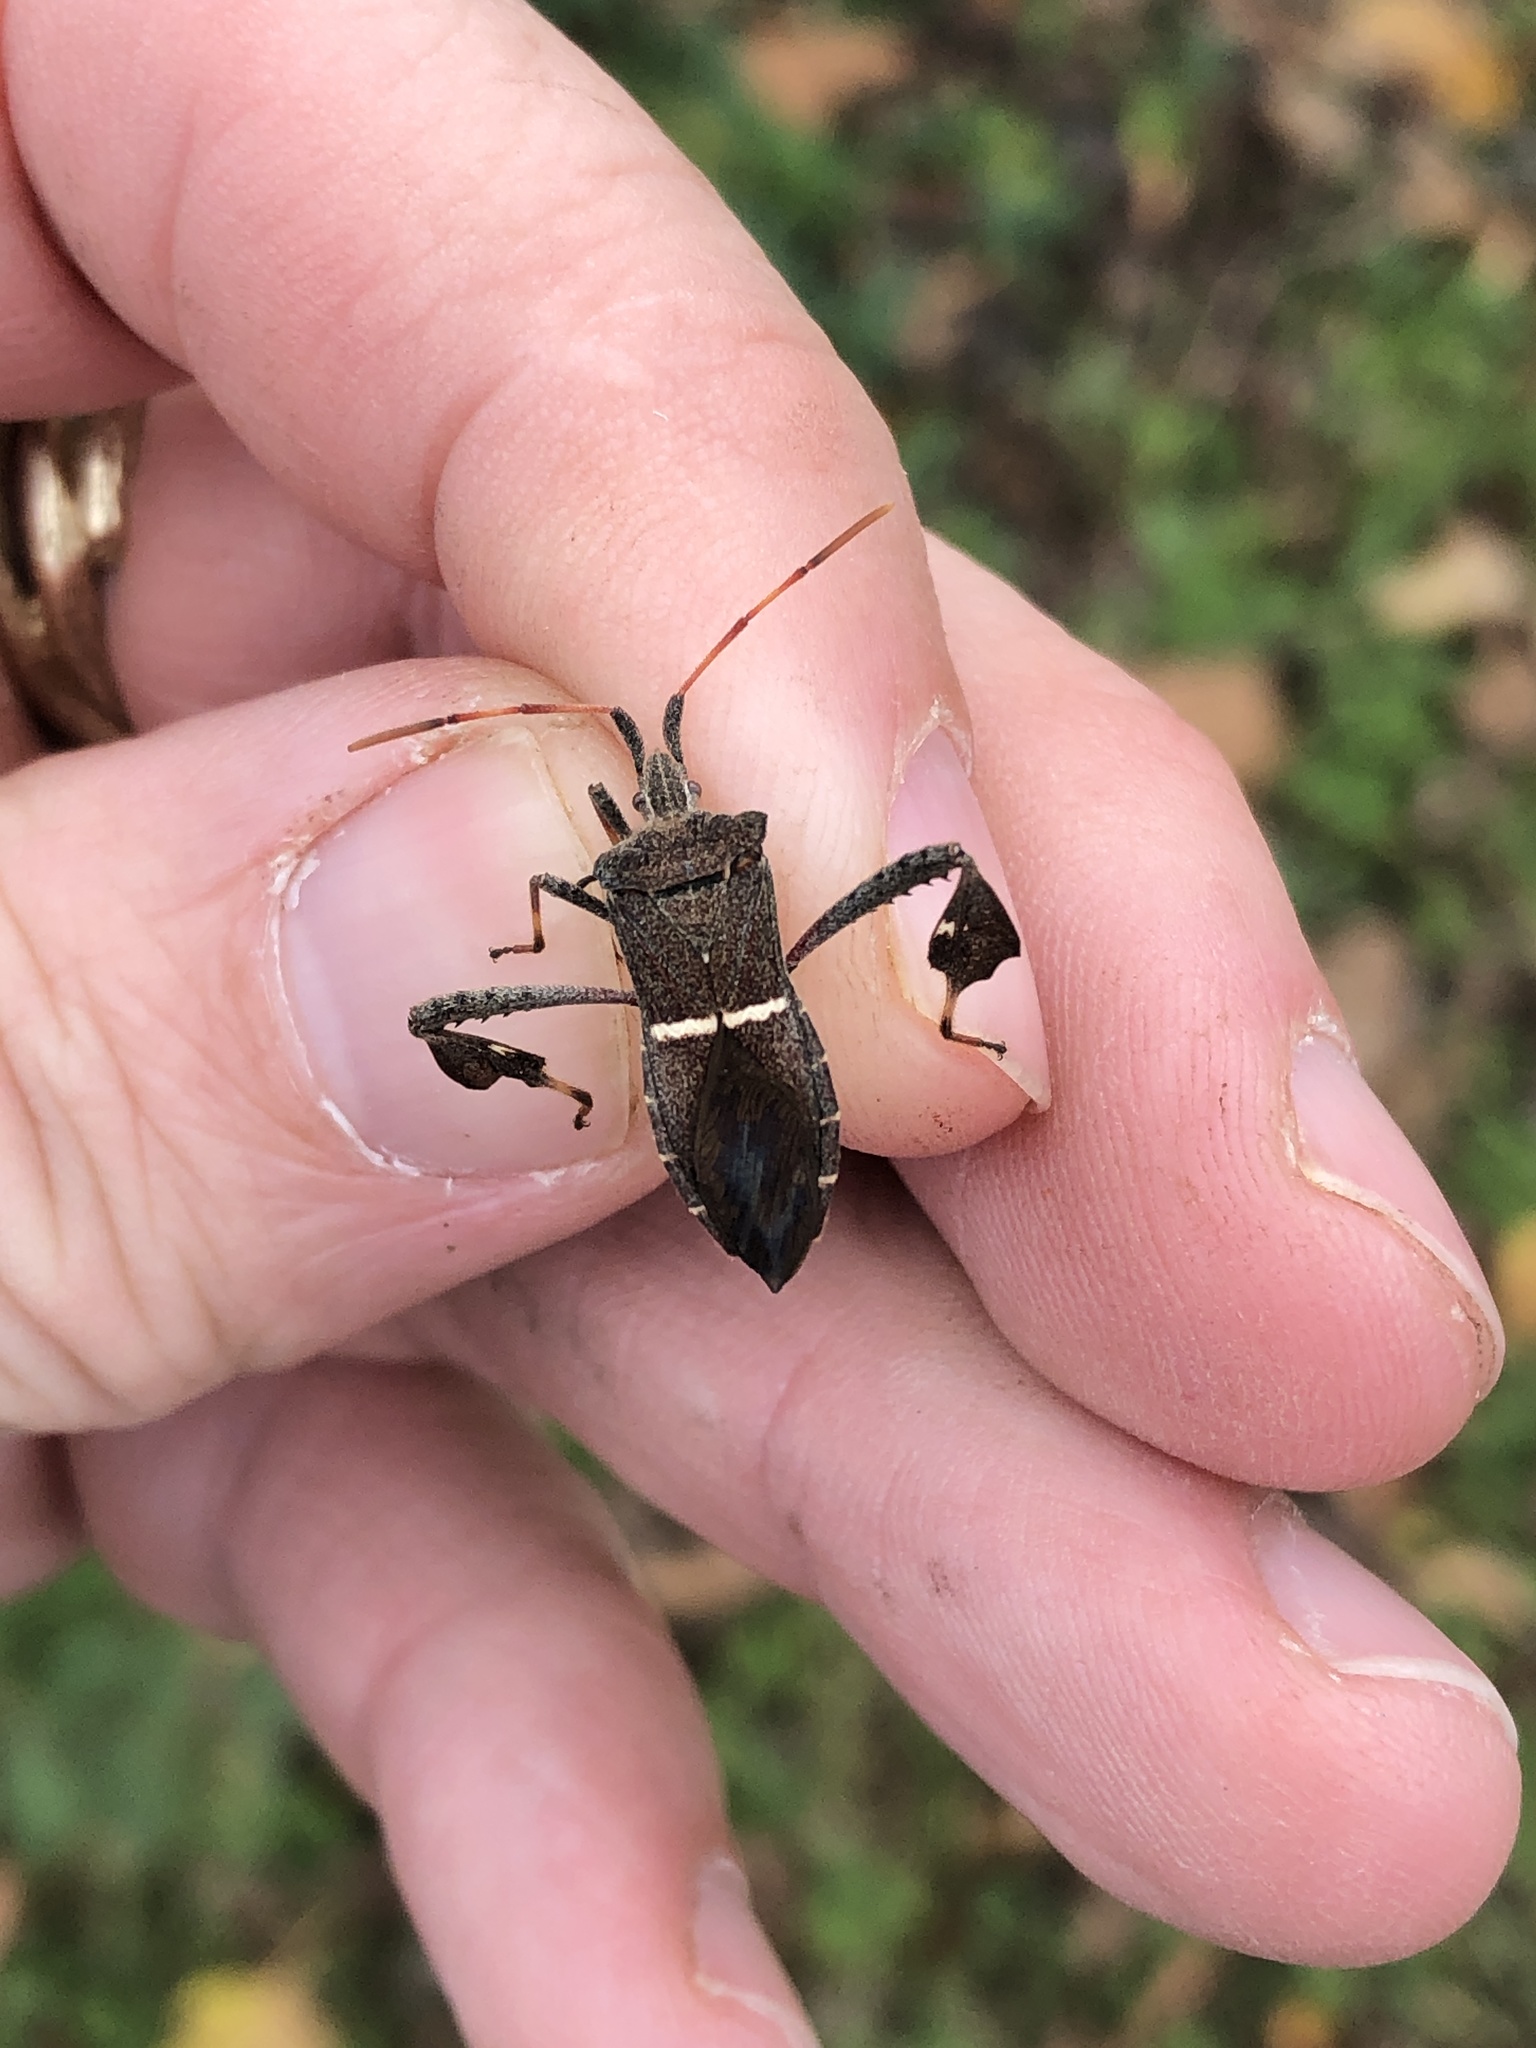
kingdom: Animalia
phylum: Arthropoda
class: Insecta
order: Hemiptera
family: Coreidae
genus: Leptoglossus
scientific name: Leptoglossus phyllopus
